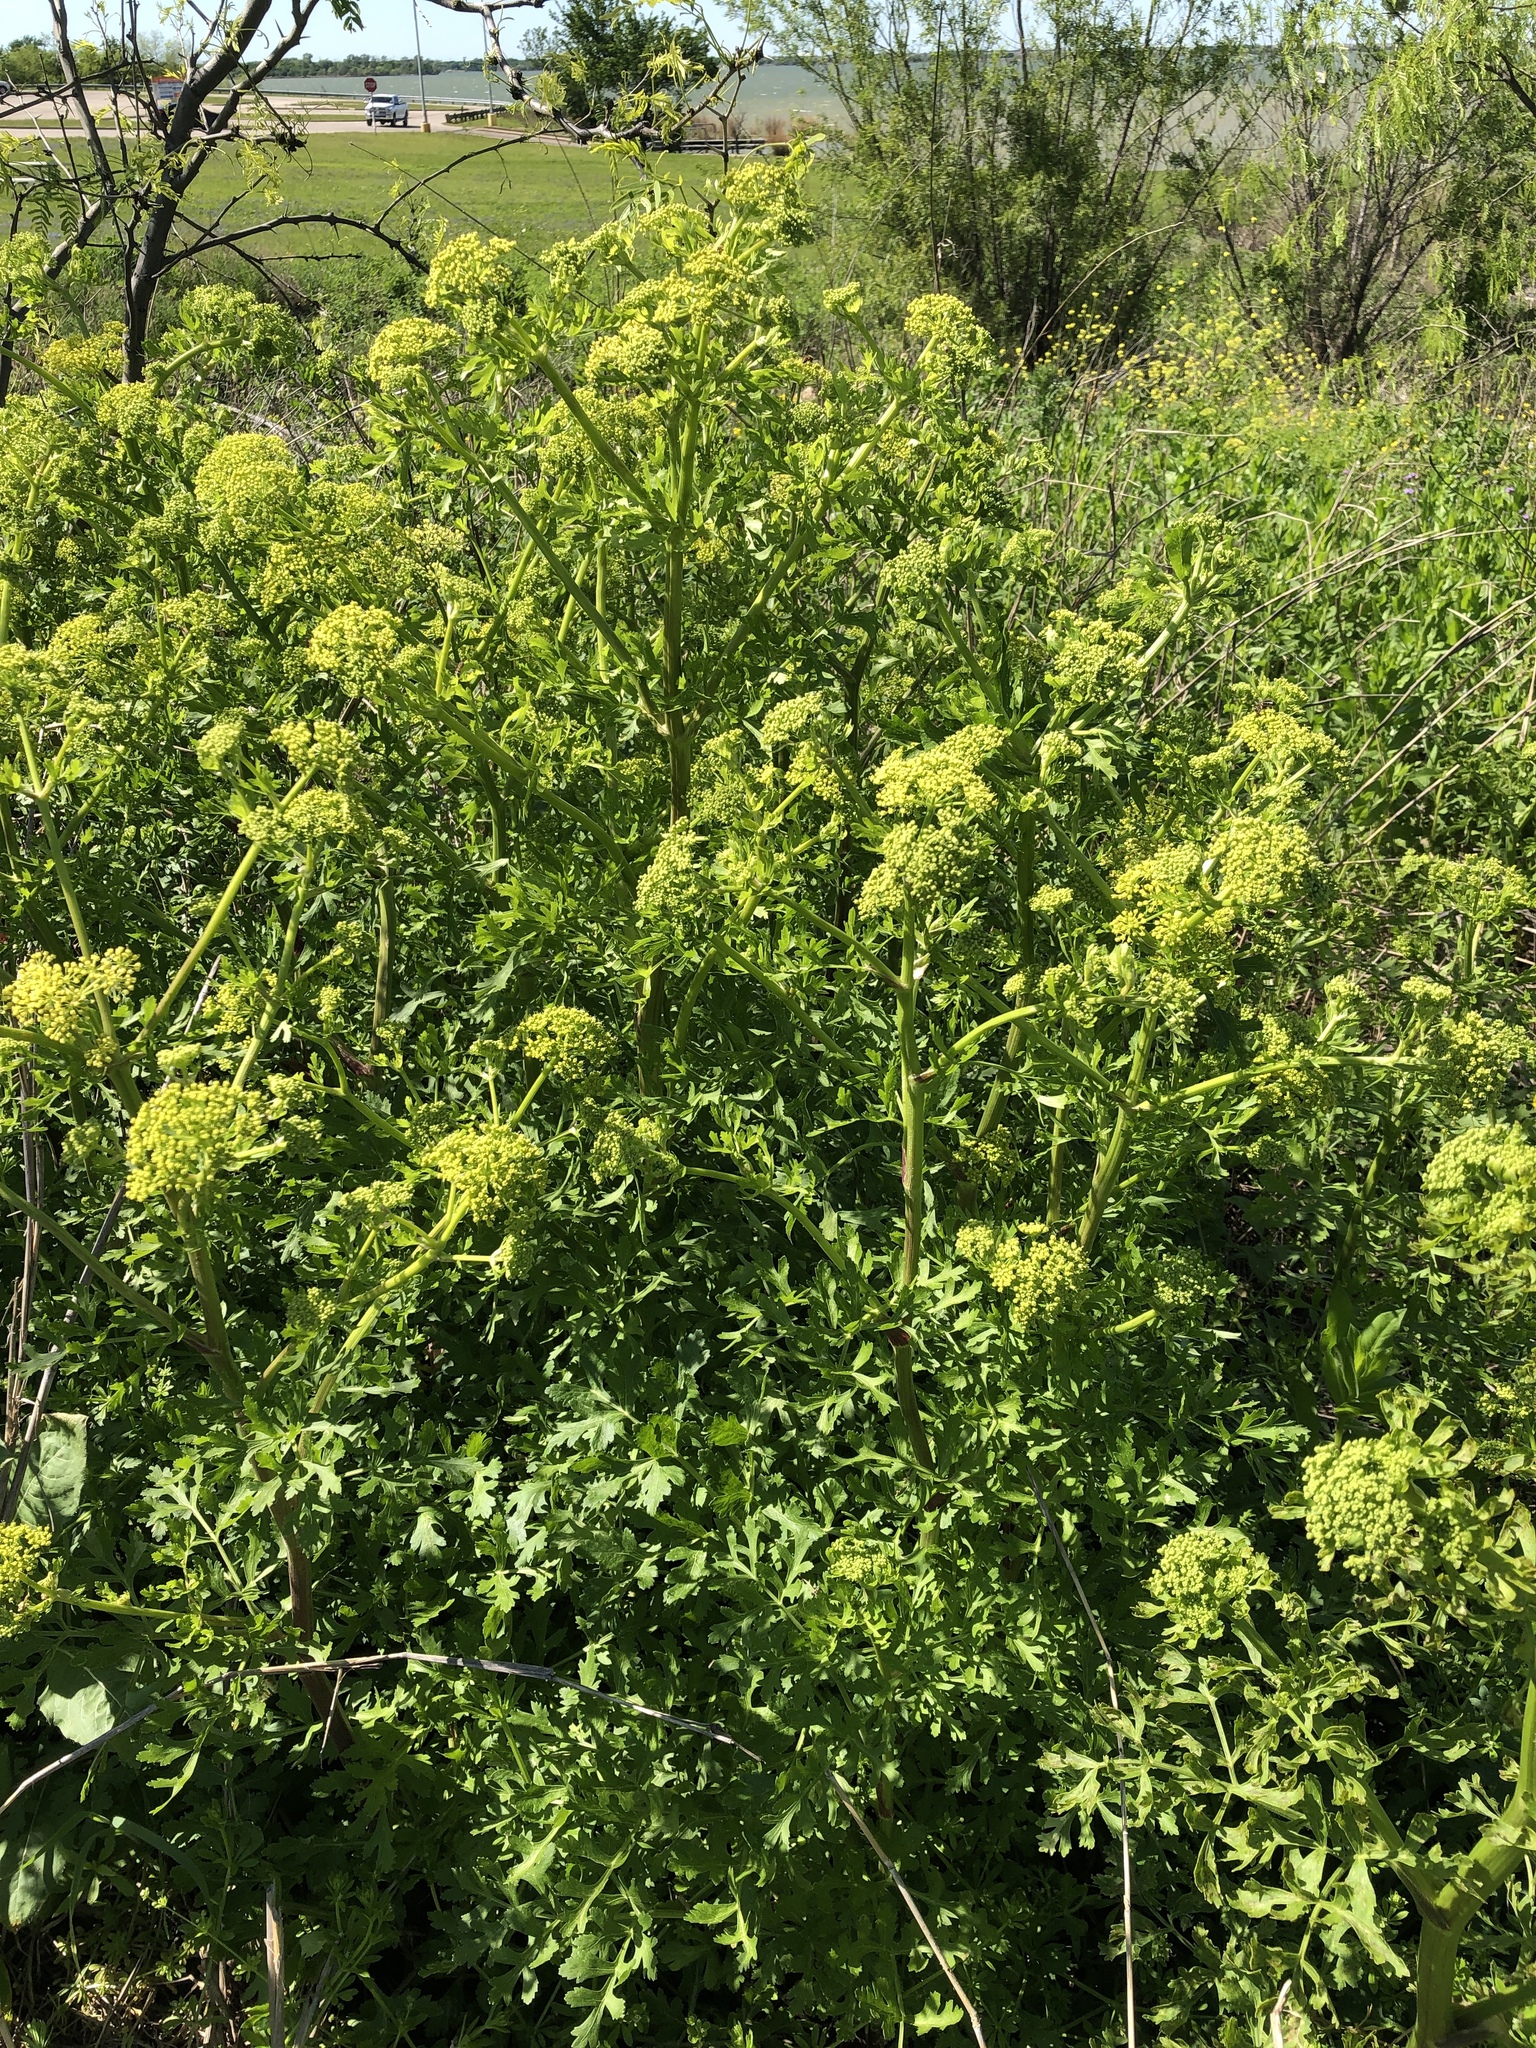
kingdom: Plantae
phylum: Tracheophyta
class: Magnoliopsida
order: Apiales
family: Apiaceae
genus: Polytaenia
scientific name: Polytaenia texana
